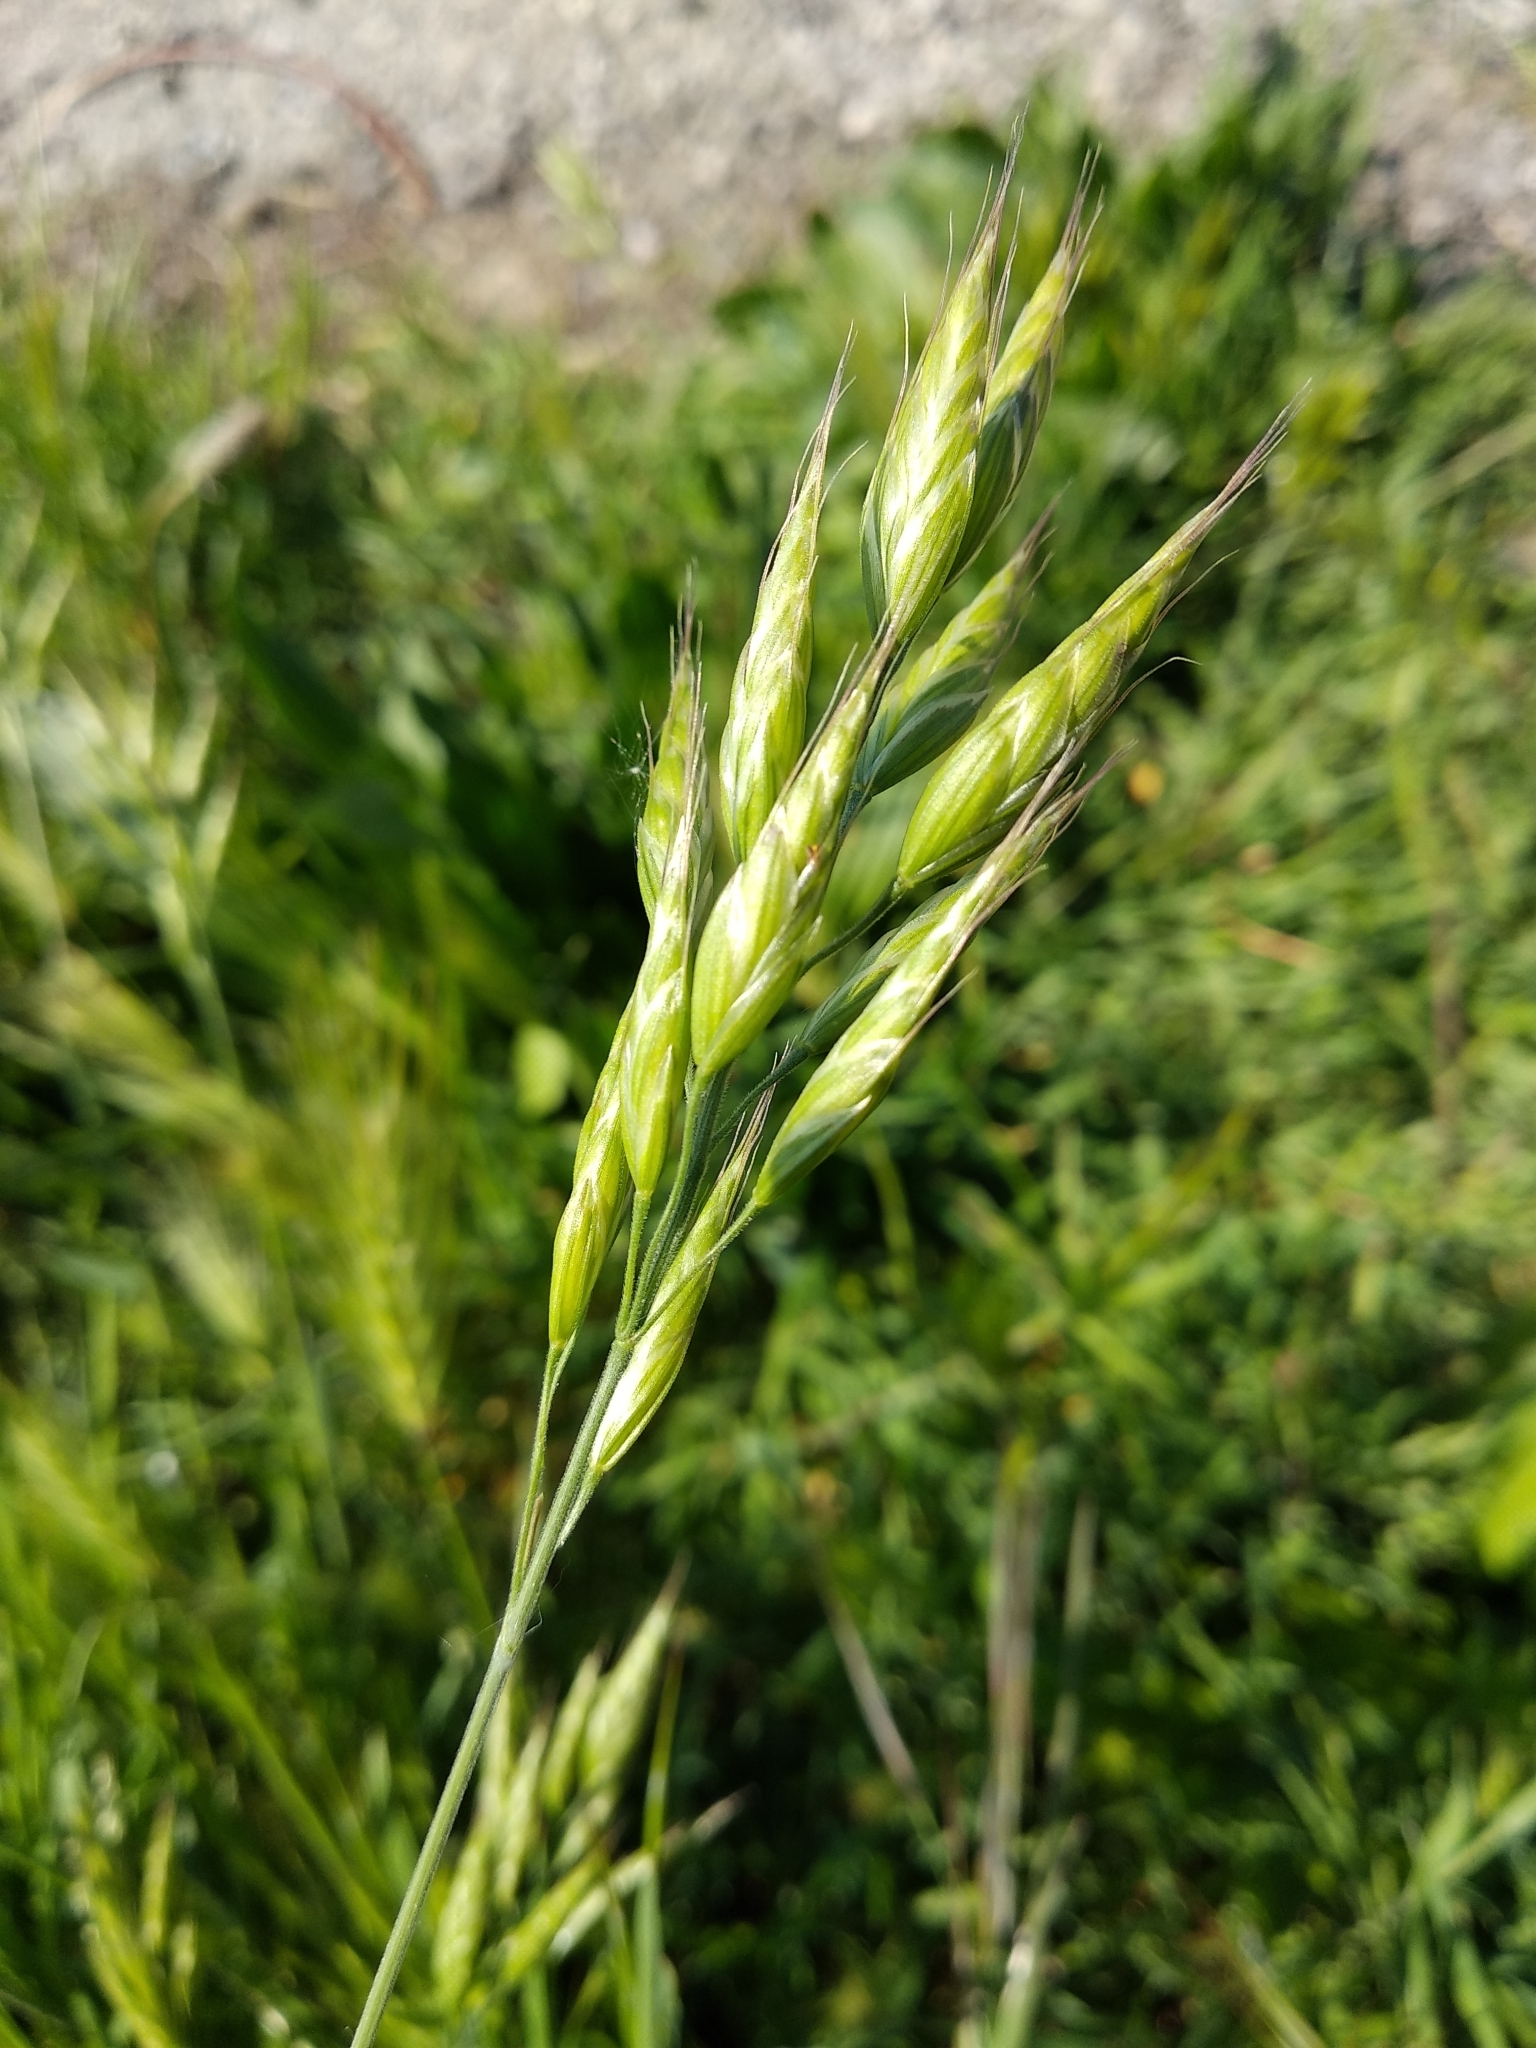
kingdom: Plantae
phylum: Tracheophyta
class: Liliopsida
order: Poales
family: Poaceae
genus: Bromus
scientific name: Bromus hordeaceus
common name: Soft brome
